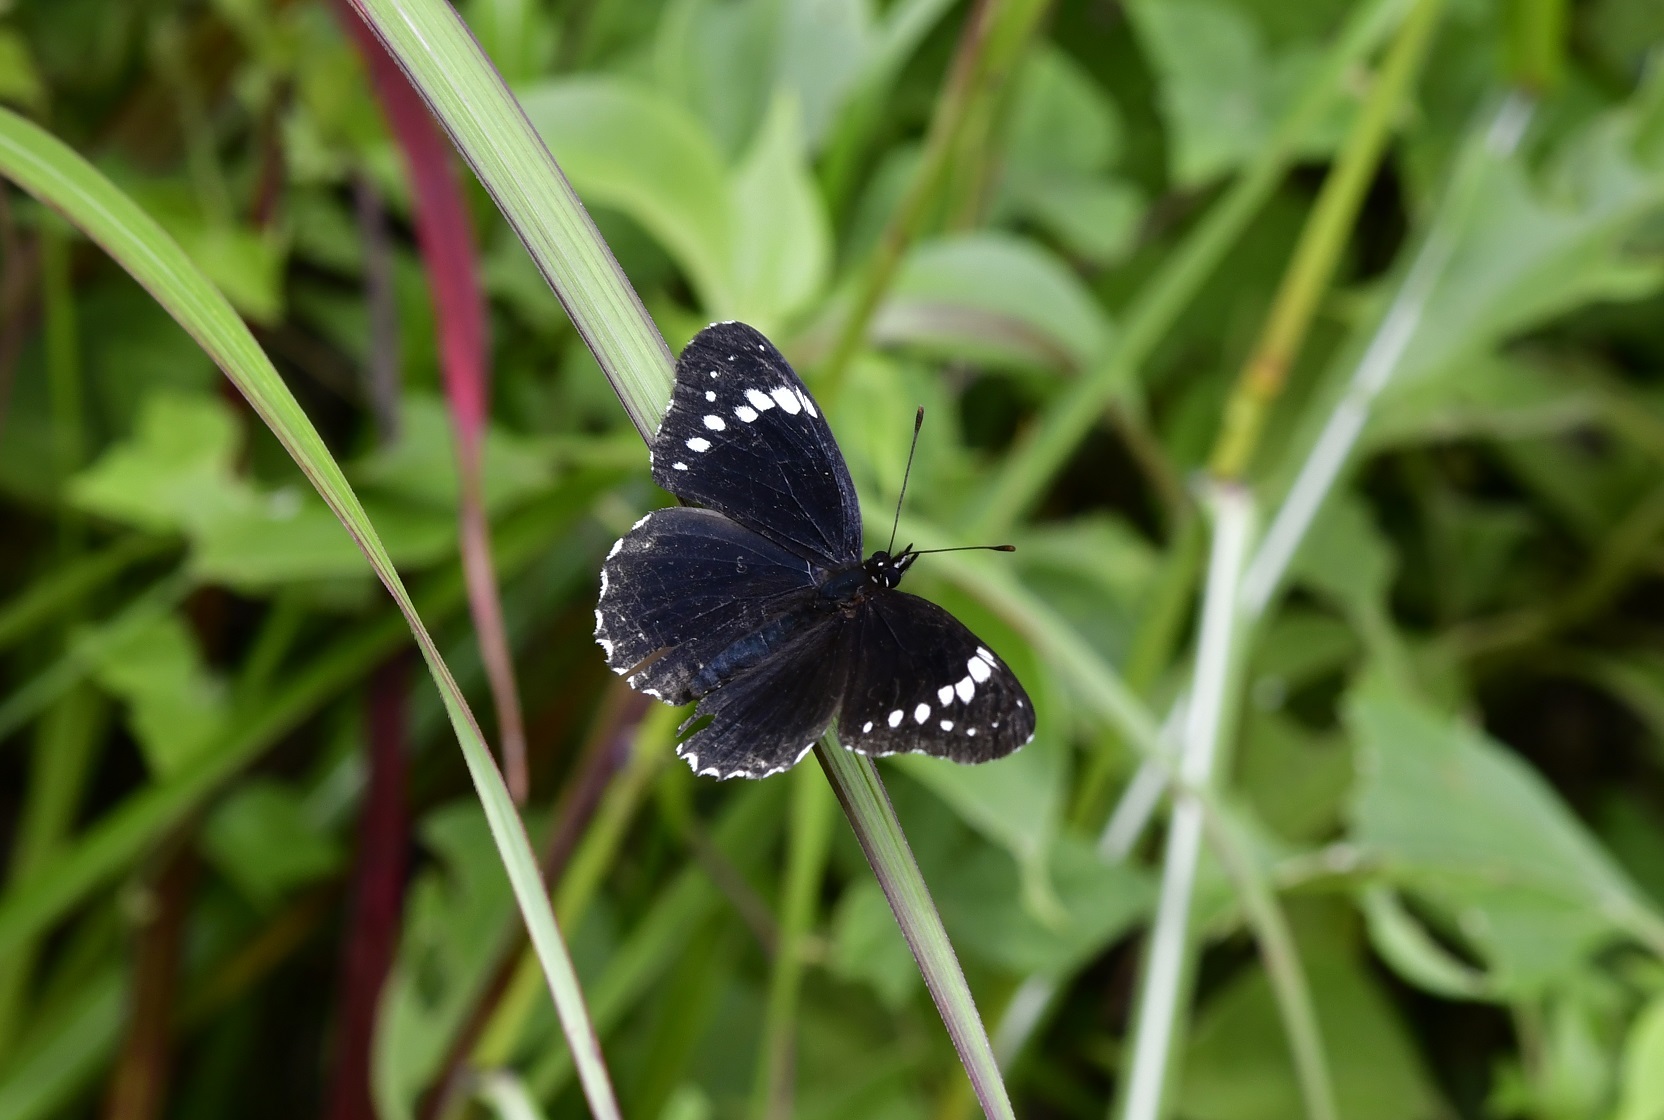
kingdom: Animalia
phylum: Arthropoda
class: Insecta
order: Lepidoptera
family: Nymphalidae
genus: Chlosyne
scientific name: Chlosyne hippodrome
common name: Simple patch
